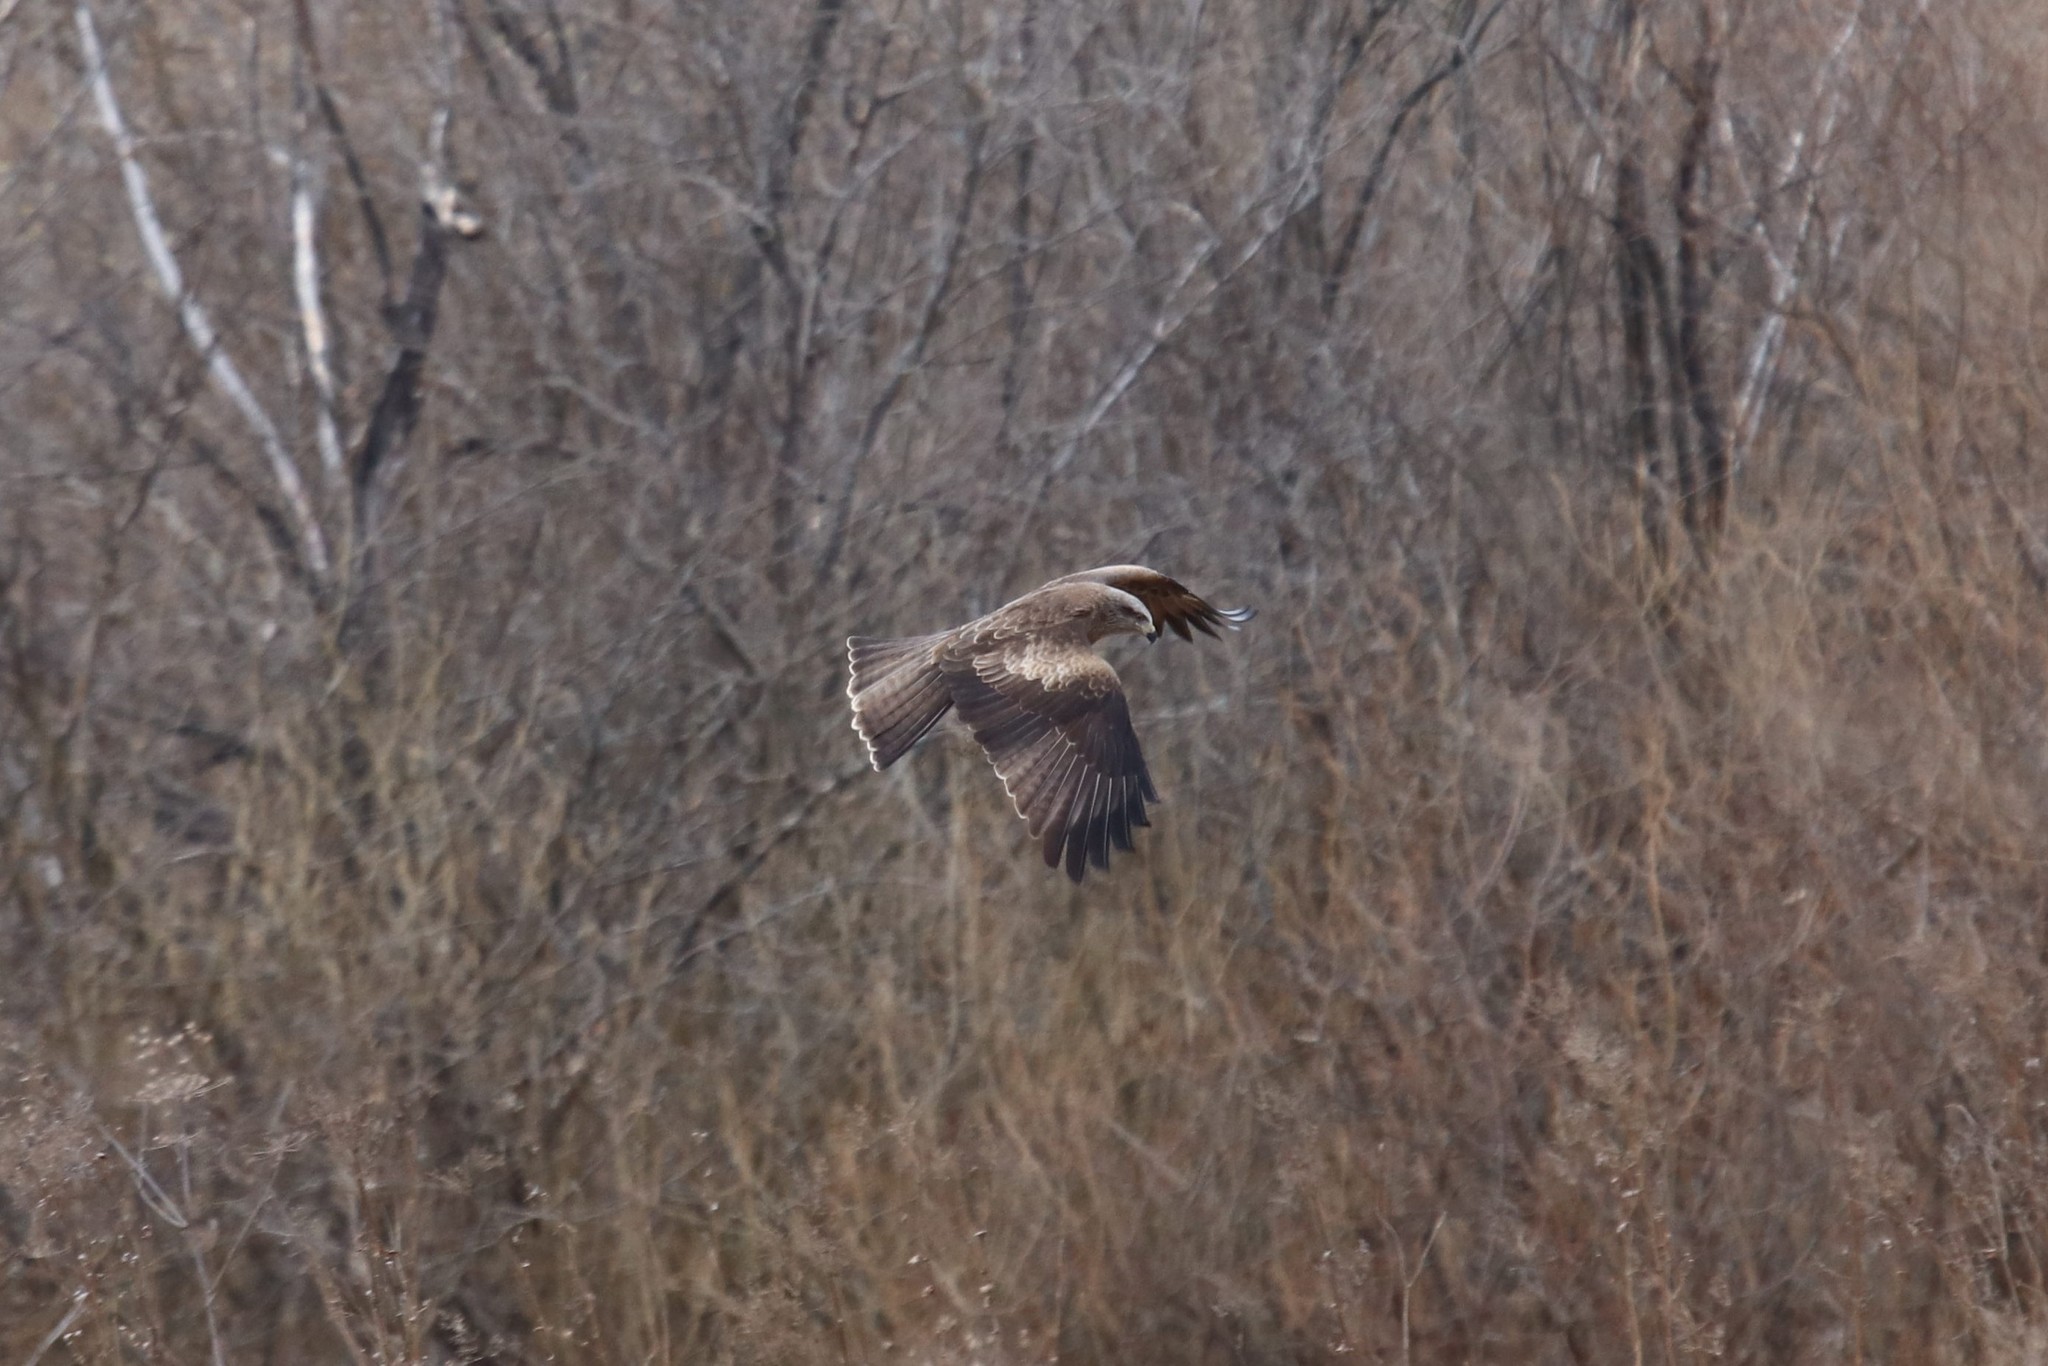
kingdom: Animalia
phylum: Chordata
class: Aves
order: Accipitriformes
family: Accipitridae
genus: Milvus
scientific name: Milvus migrans
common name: Black kite
